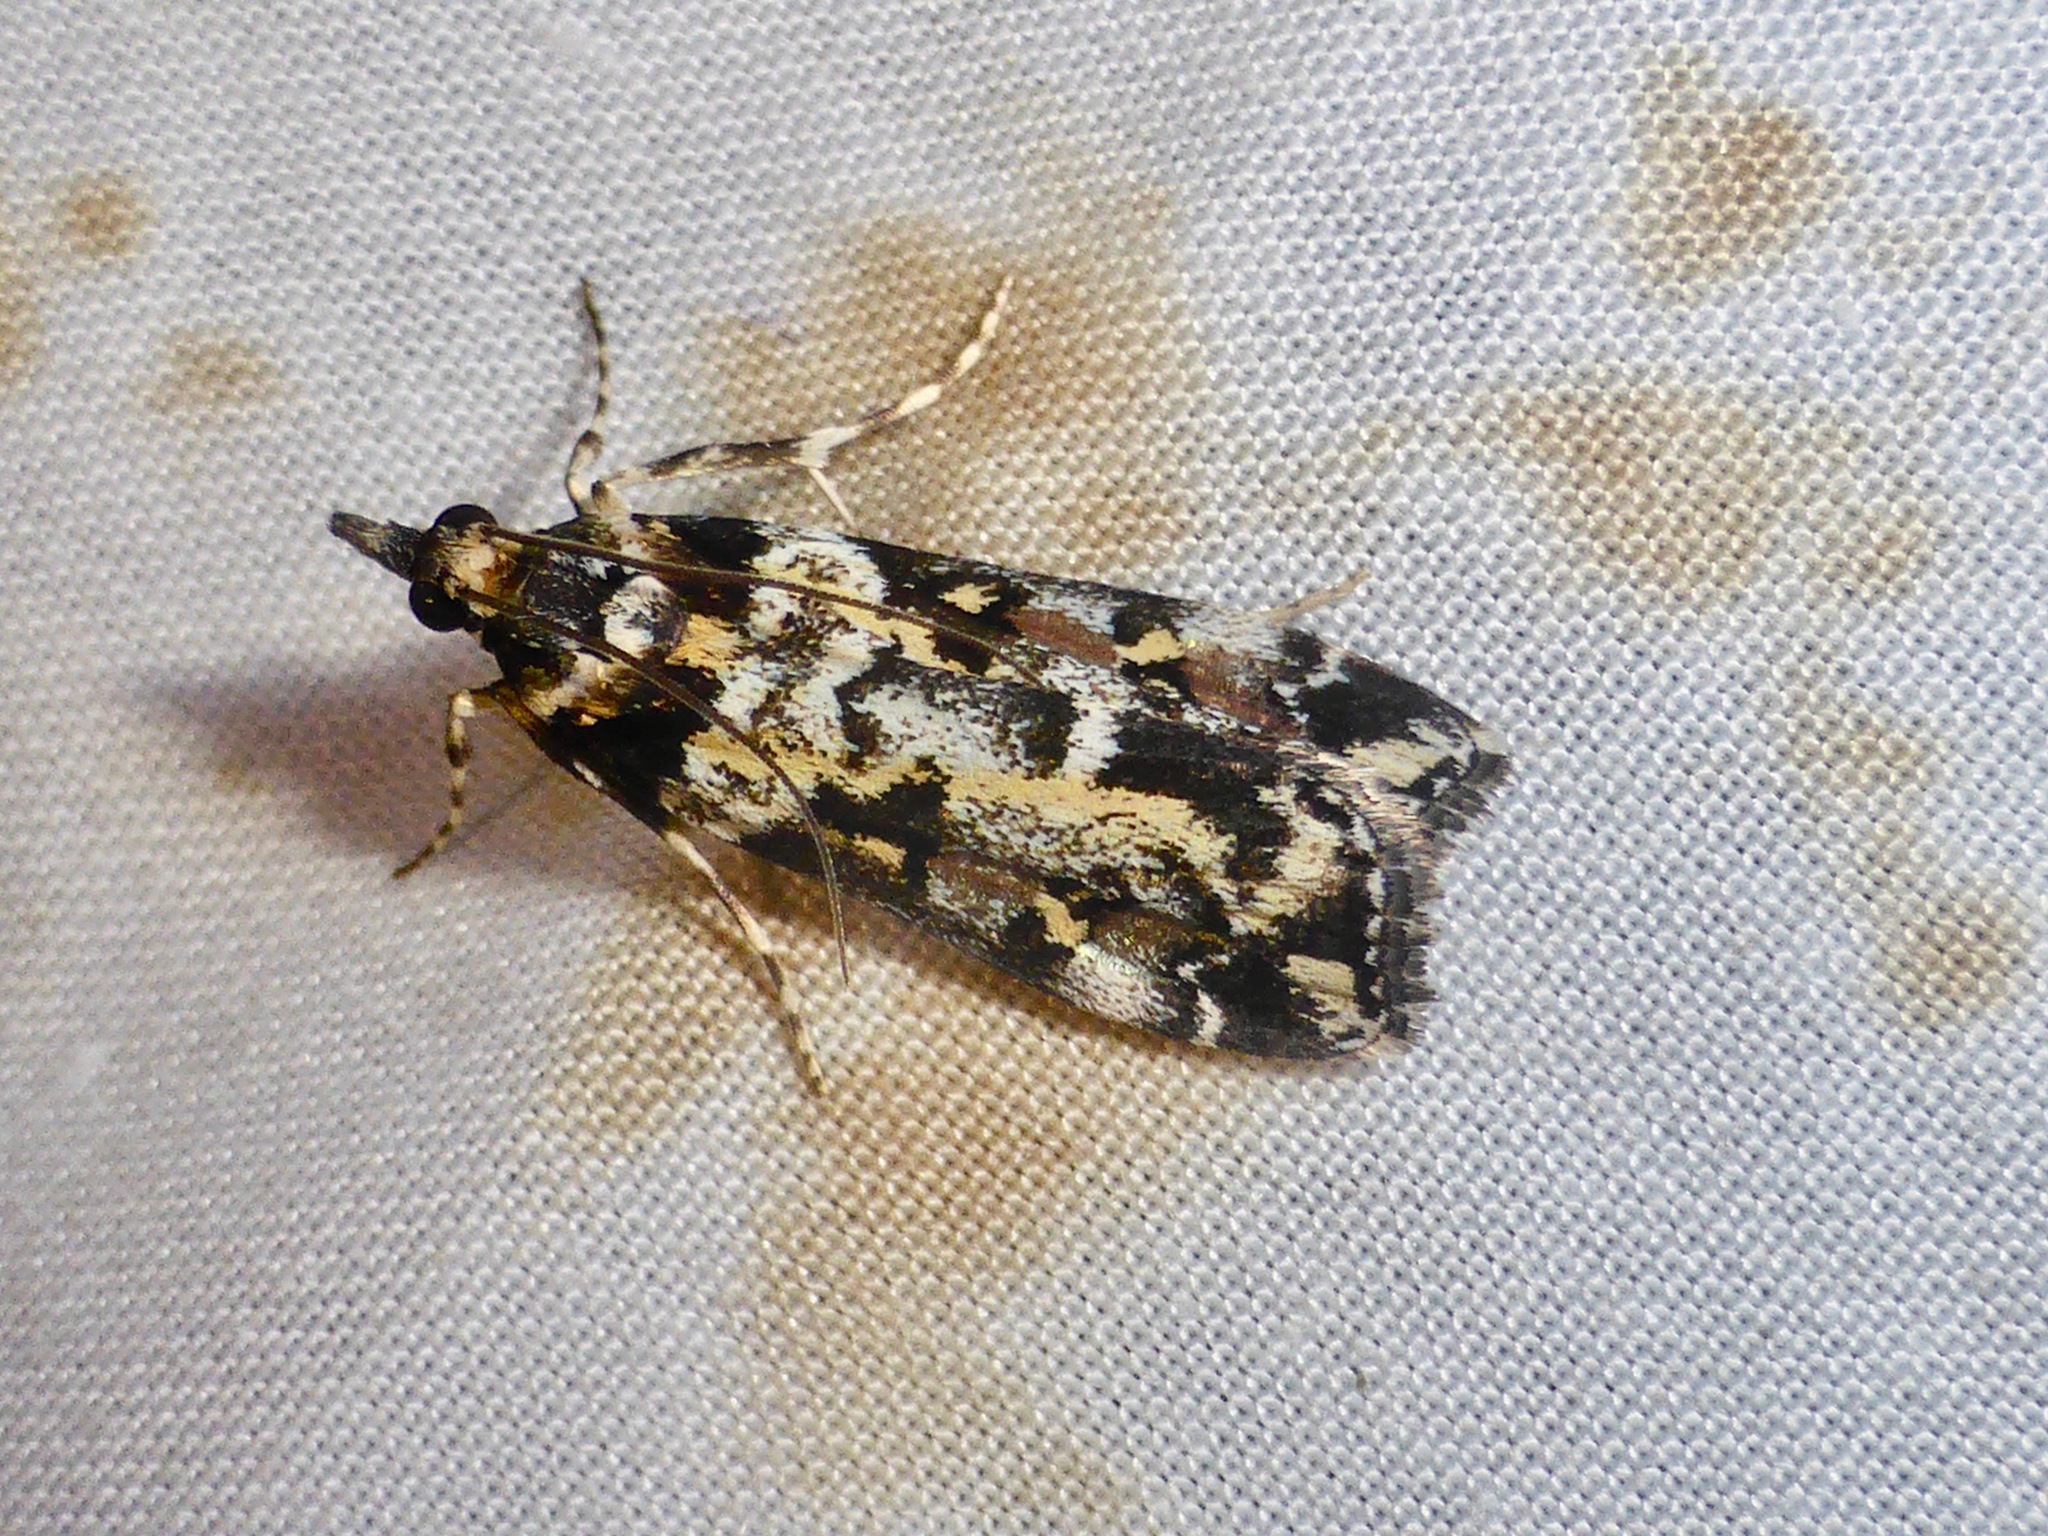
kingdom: Animalia
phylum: Arthropoda
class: Insecta
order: Lepidoptera
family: Crambidae
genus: Eudonia
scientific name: Eudonia diphtheralis
